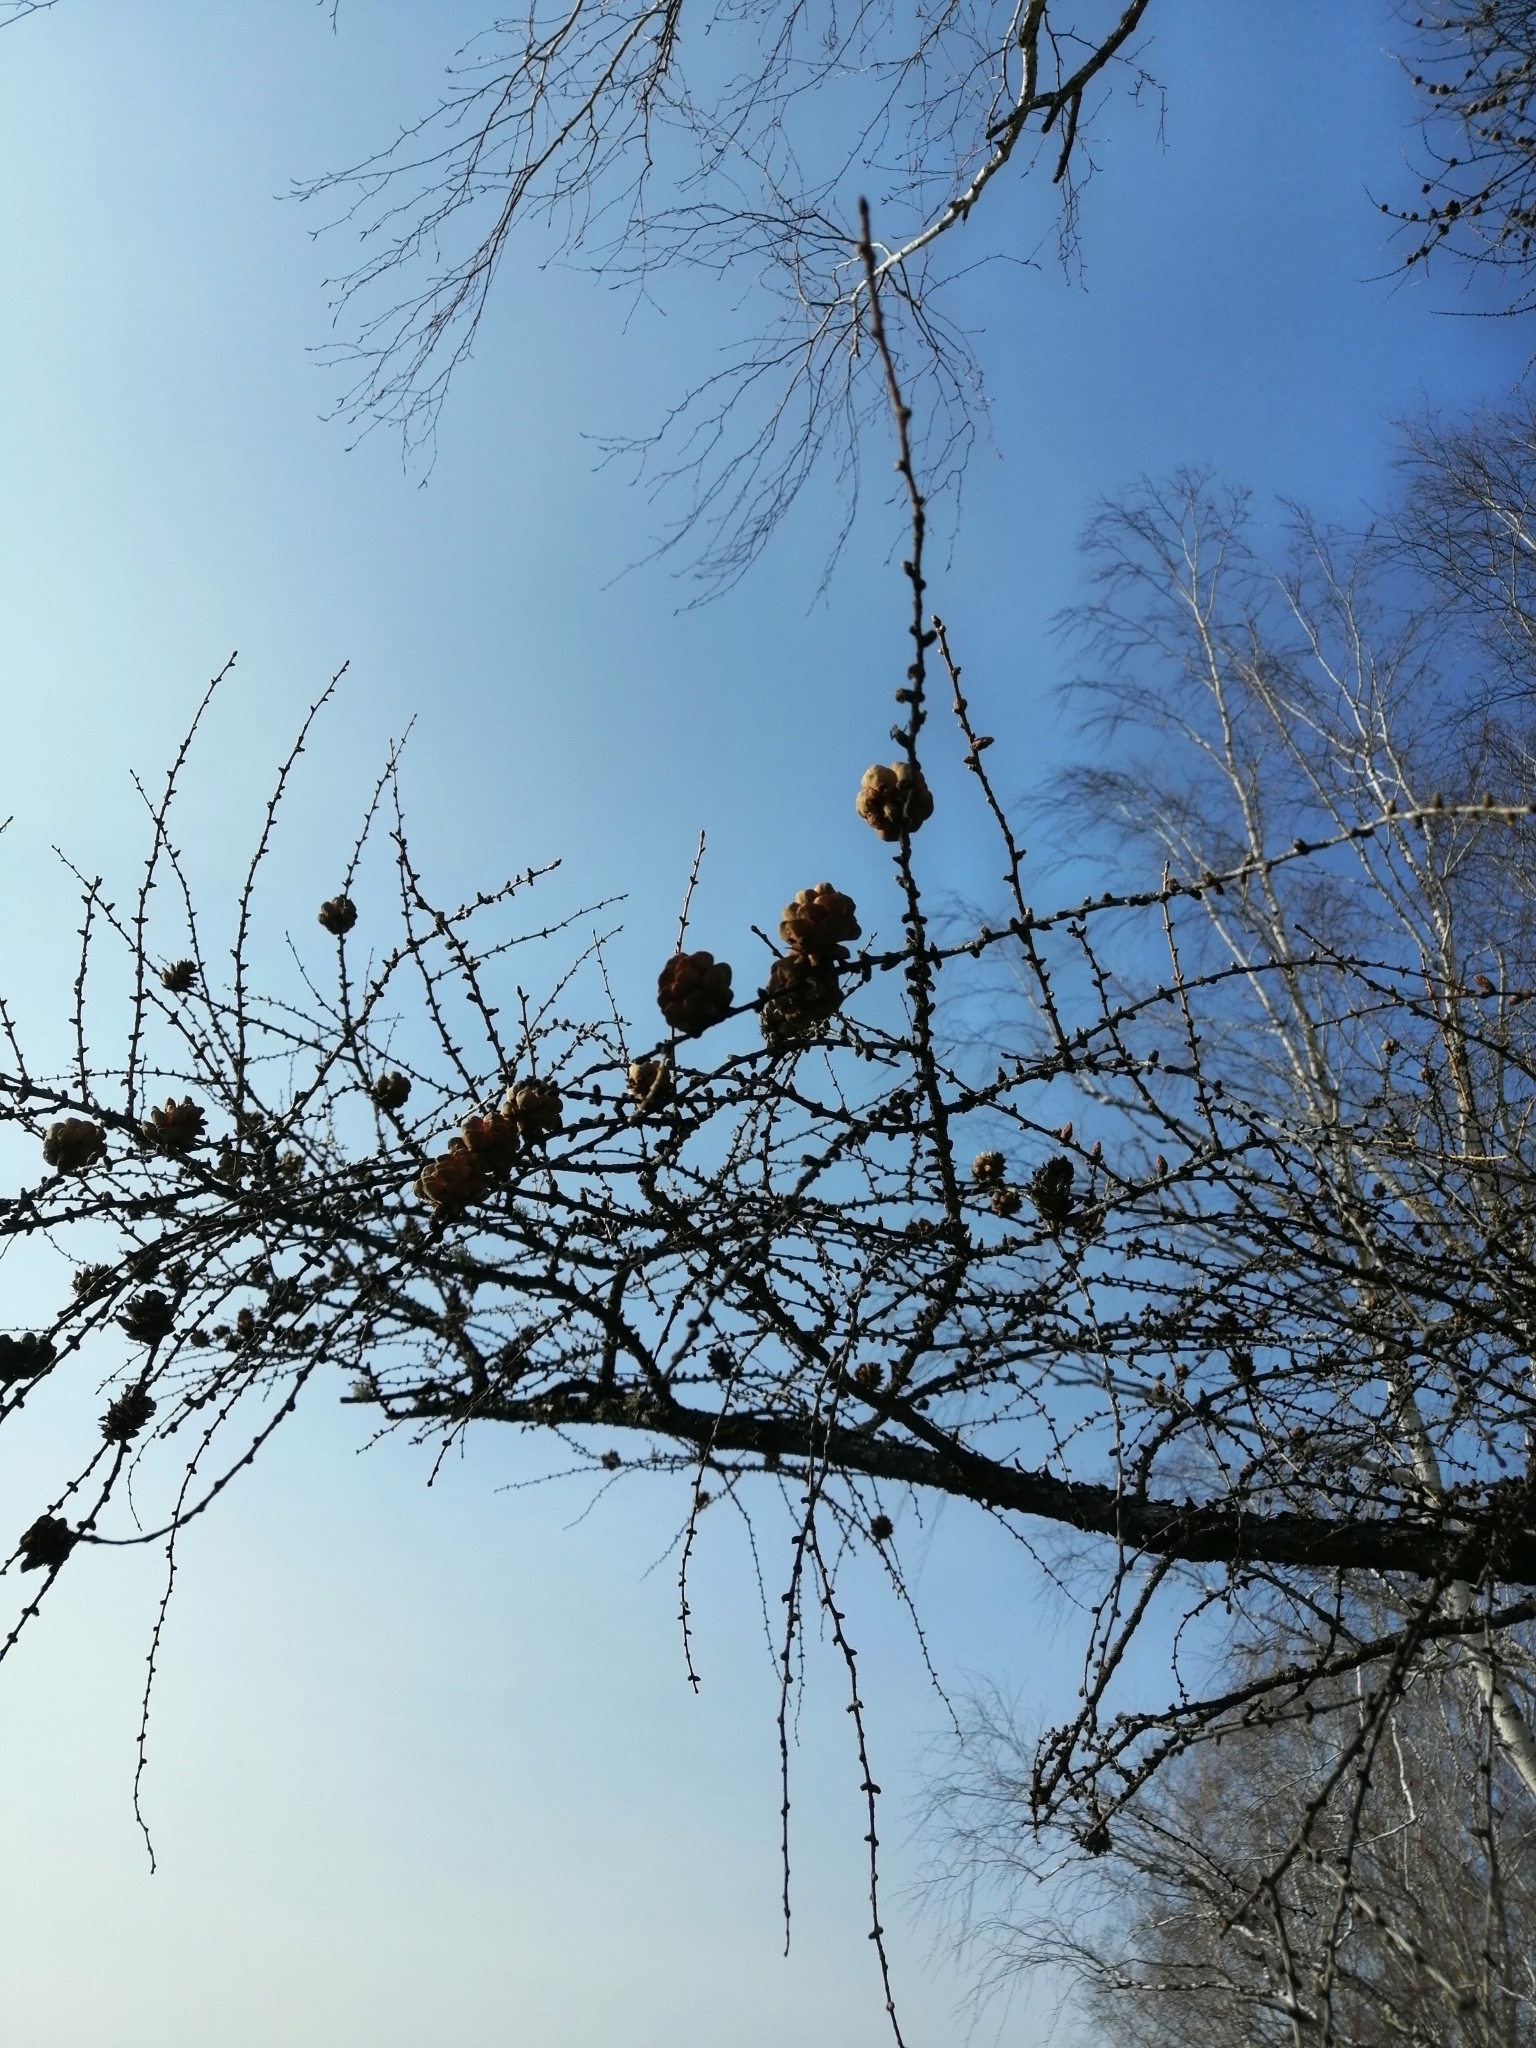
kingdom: Plantae
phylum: Tracheophyta
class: Pinopsida
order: Pinales
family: Pinaceae
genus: Larix
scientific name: Larix sibirica
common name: Siberian larch
